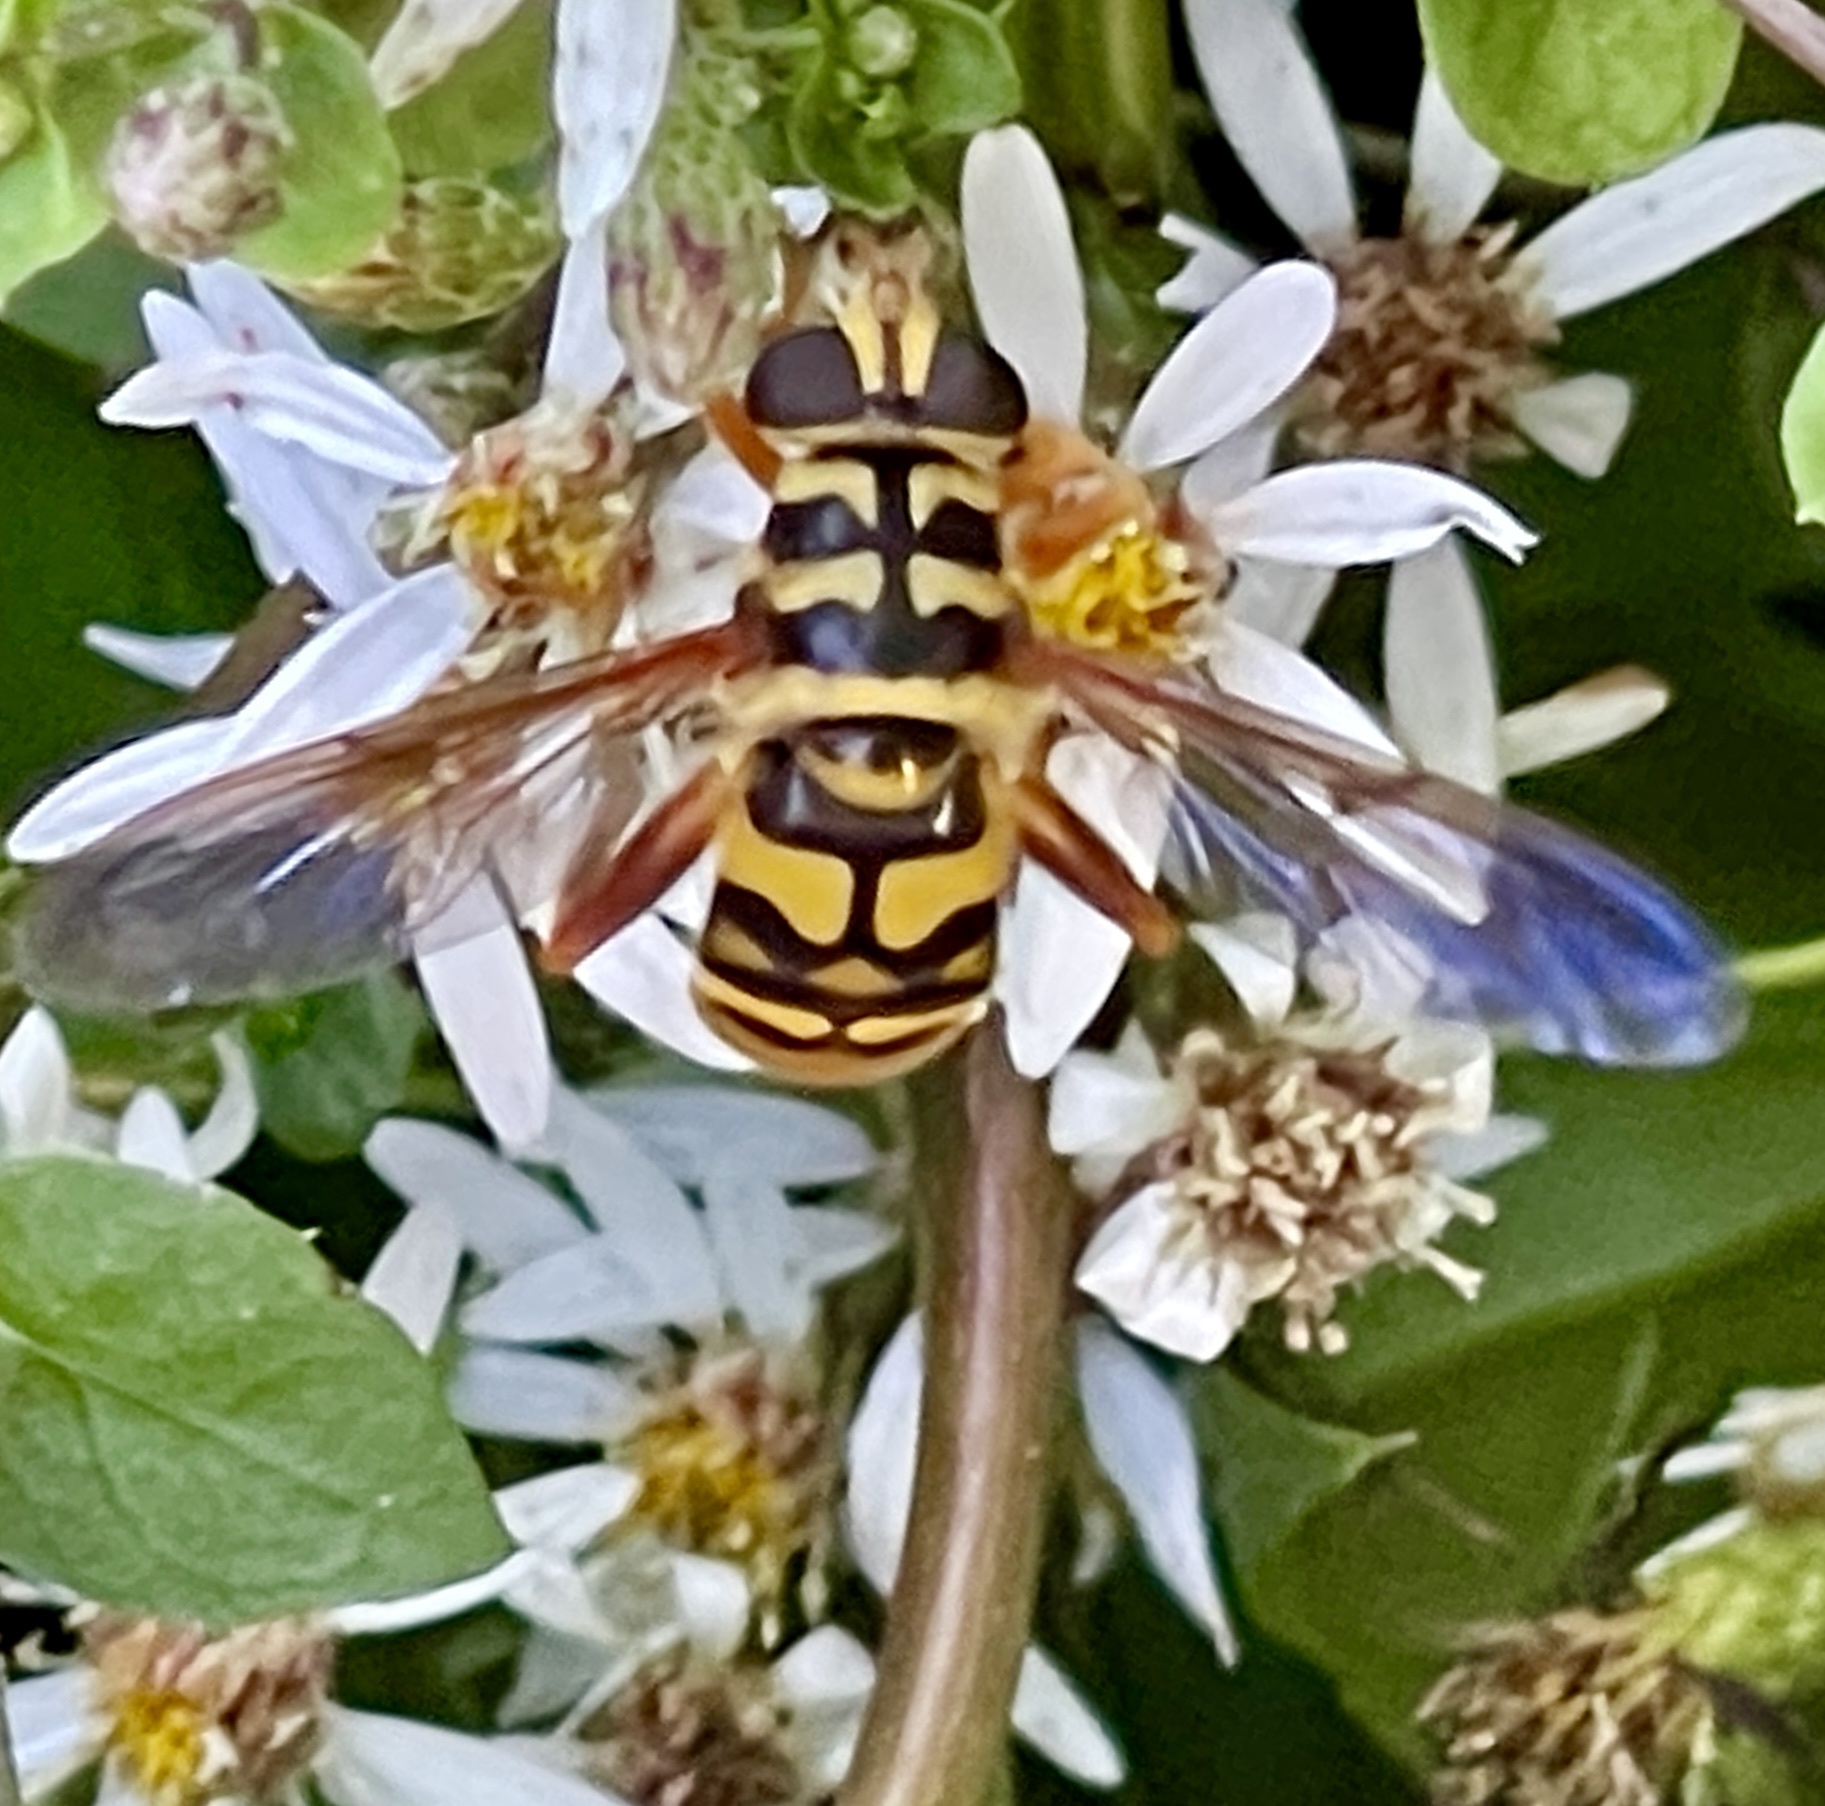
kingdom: Animalia
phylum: Arthropoda
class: Insecta
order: Diptera
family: Syrphidae
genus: Milesia
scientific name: Milesia virginiensis
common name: Virginia giant
